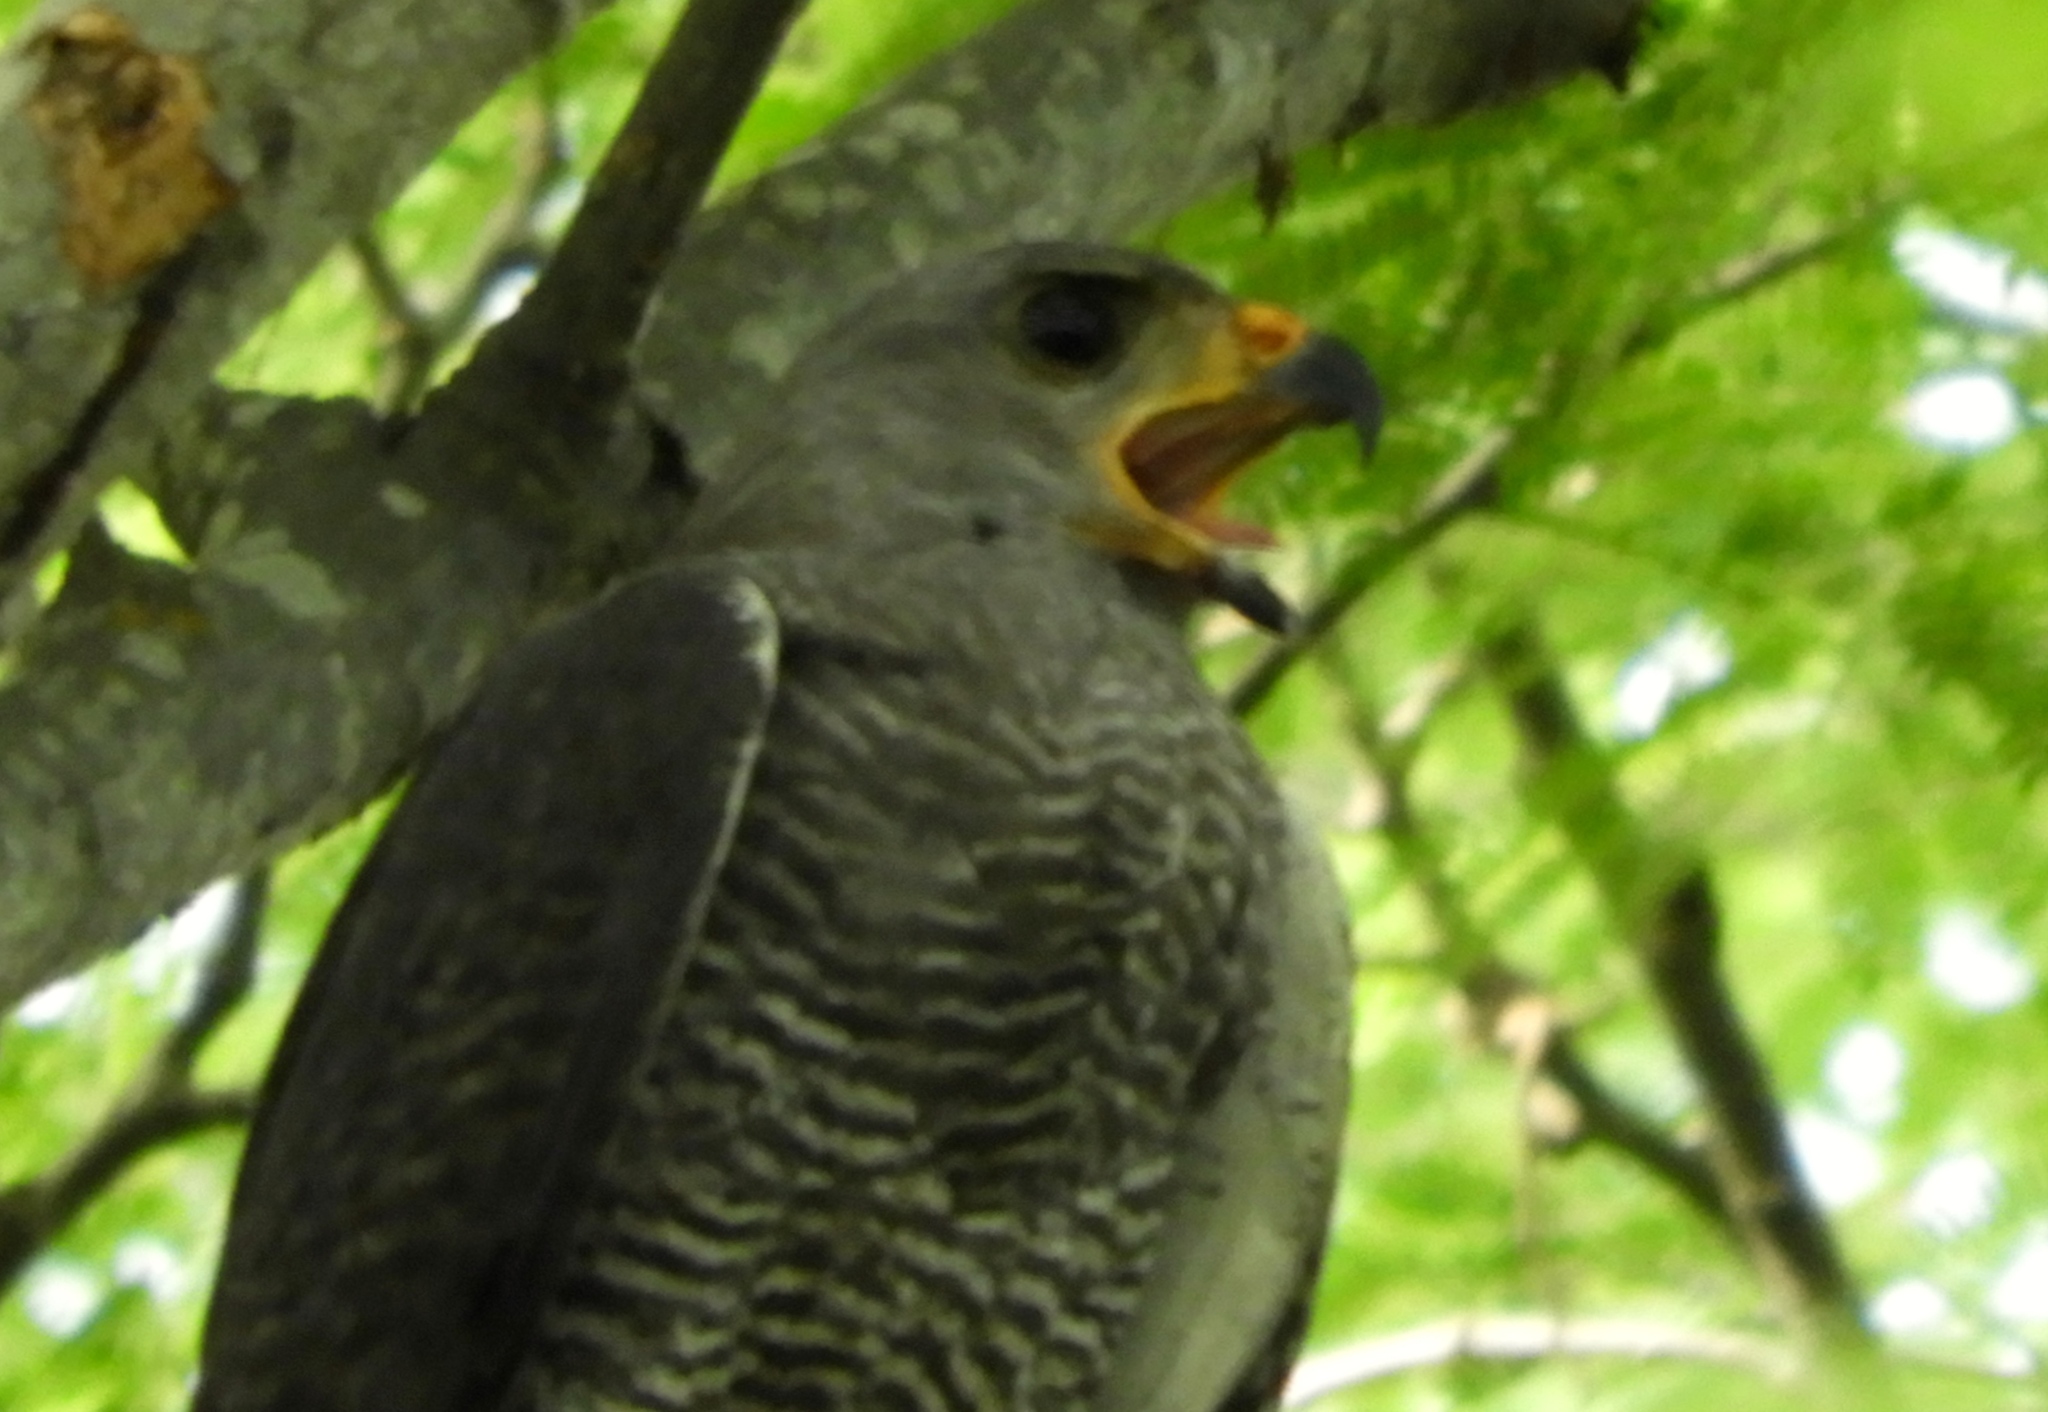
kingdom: Animalia
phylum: Chordata
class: Aves
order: Accipitriformes
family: Accipitridae
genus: Buteo
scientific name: Buteo nitidus
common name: Grey-lined hawk
